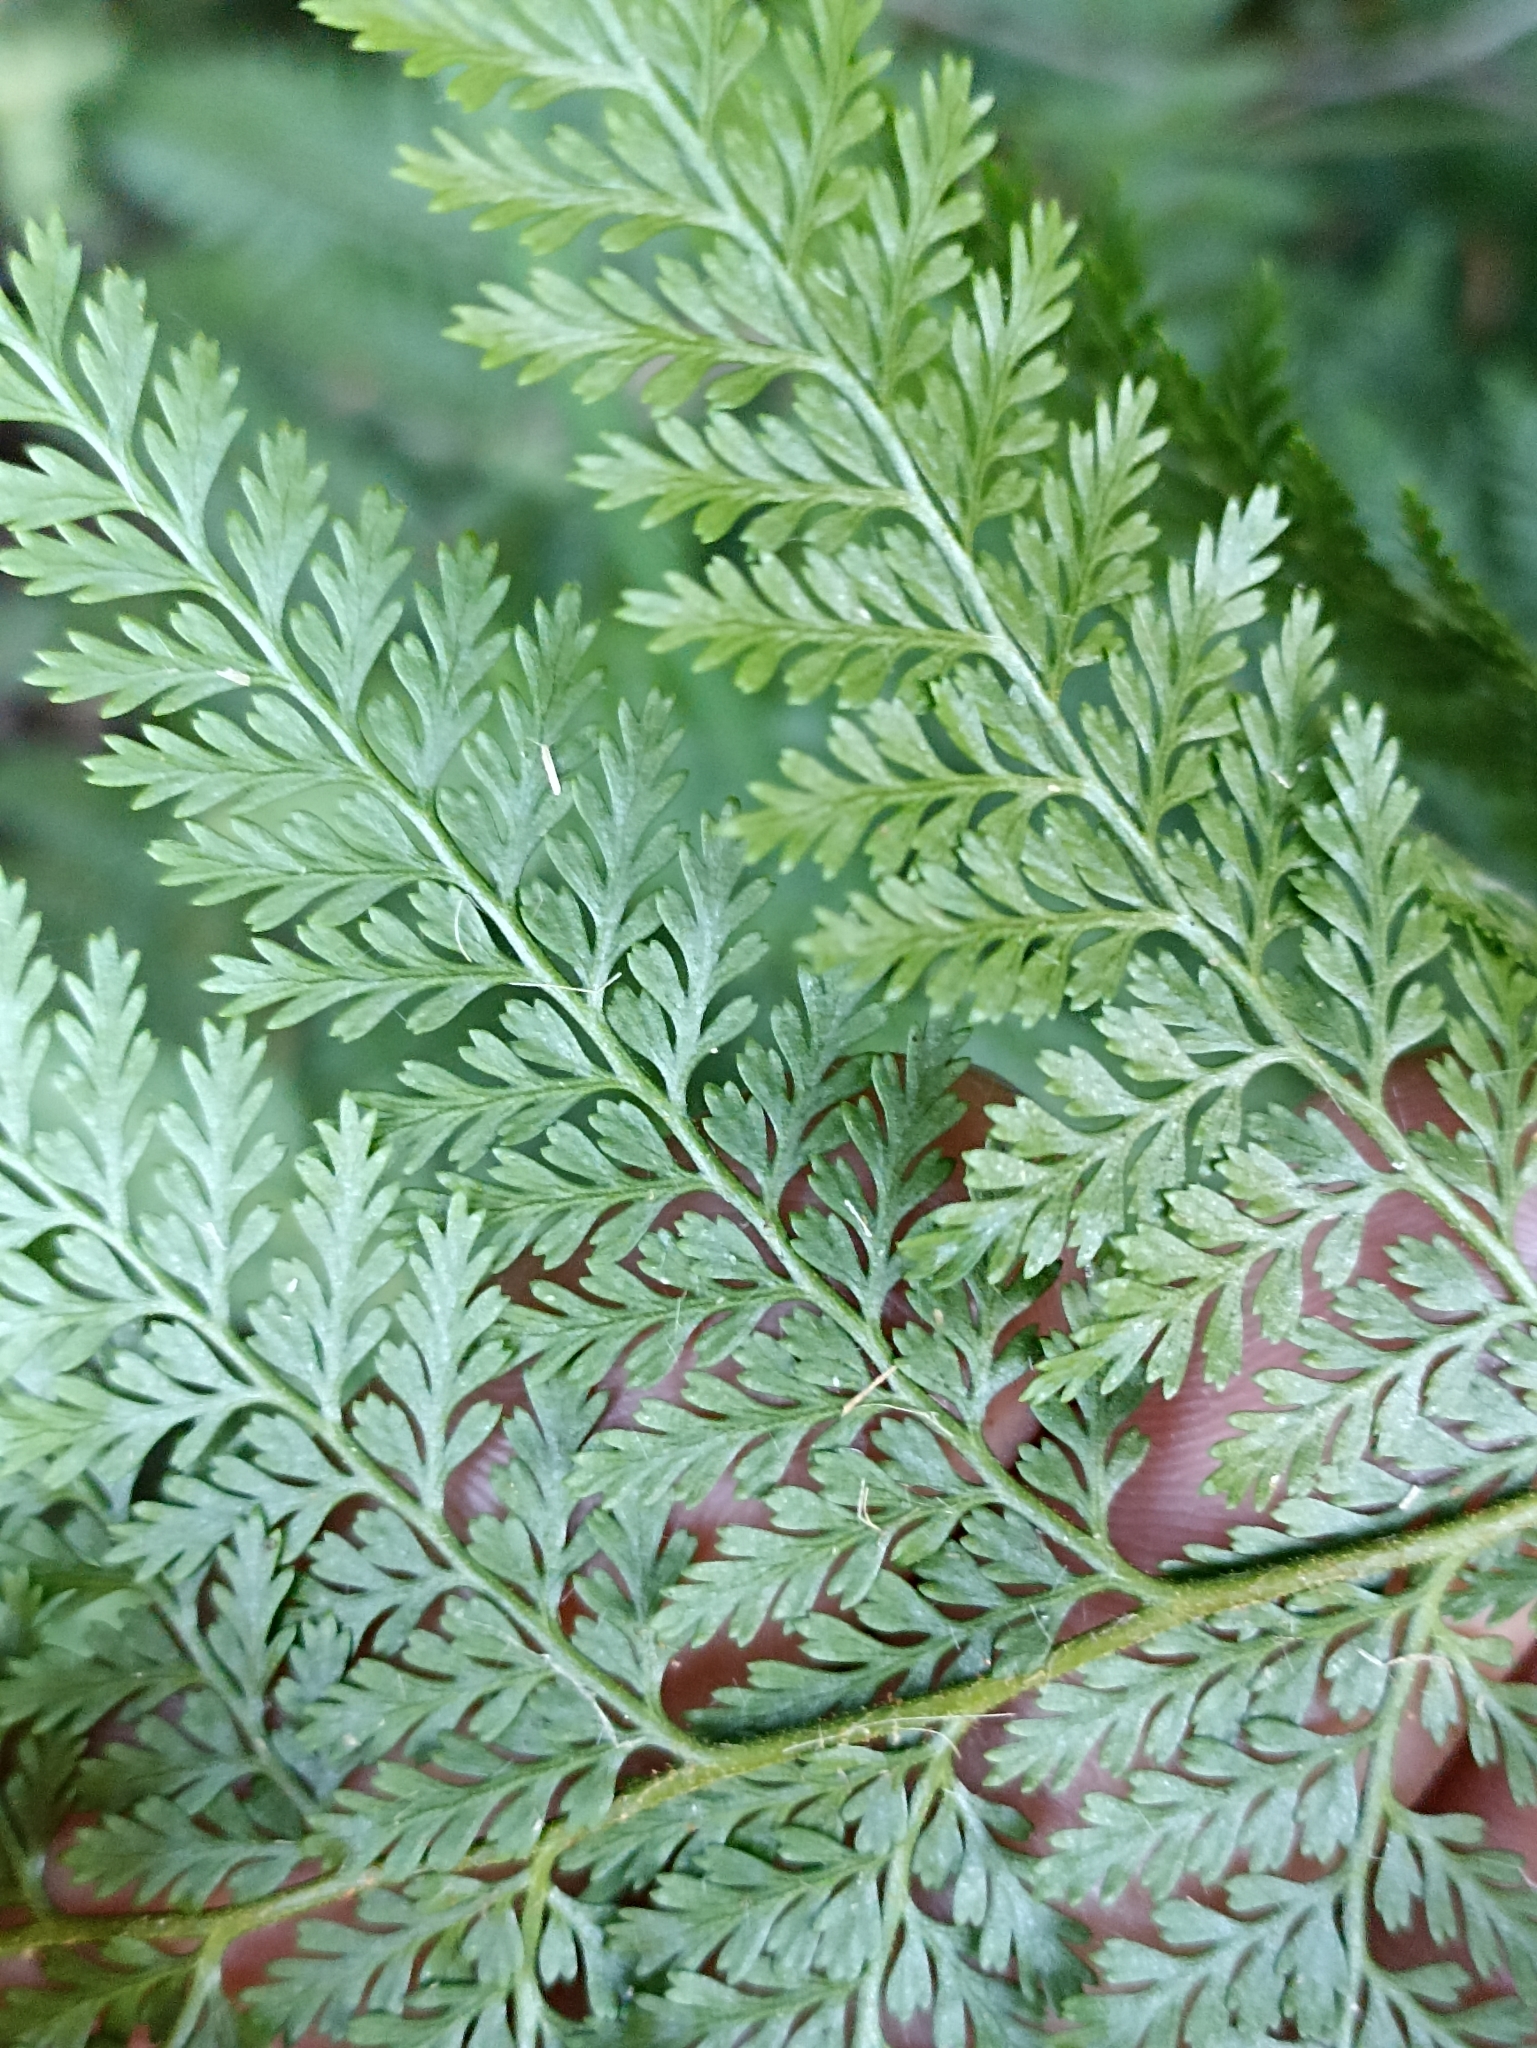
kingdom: Plantae
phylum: Tracheophyta
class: Polypodiopsida
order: Polypodiales
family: Dennstaedtiaceae
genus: Paesia
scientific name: Paesia scaberula
